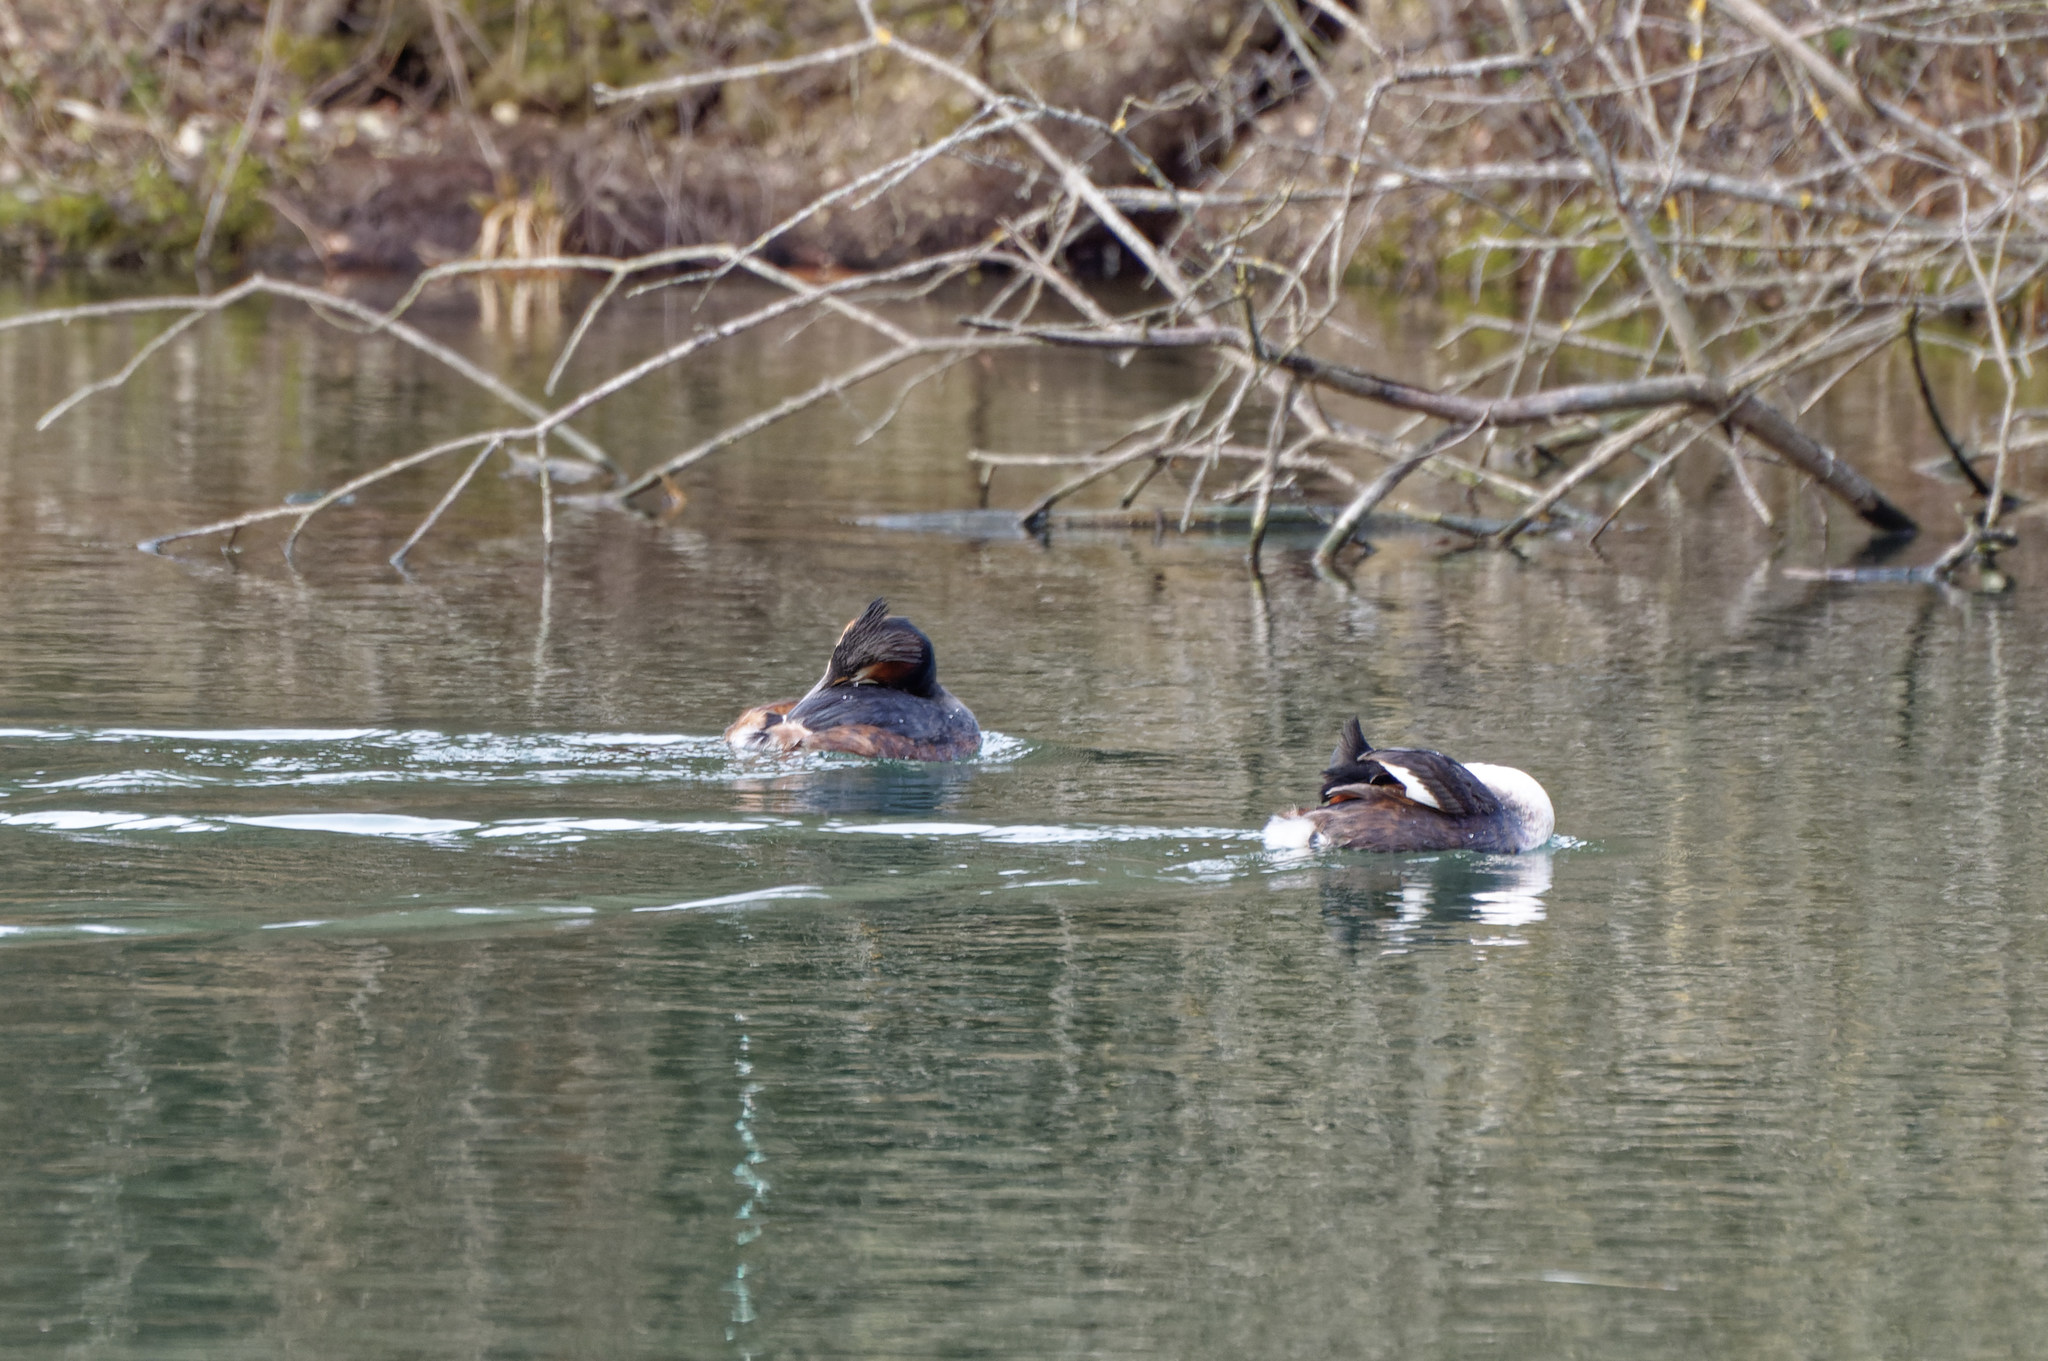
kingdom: Animalia
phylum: Chordata
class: Aves
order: Podicipediformes
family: Podicipedidae
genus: Podiceps
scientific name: Podiceps cristatus
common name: Great crested grebe
